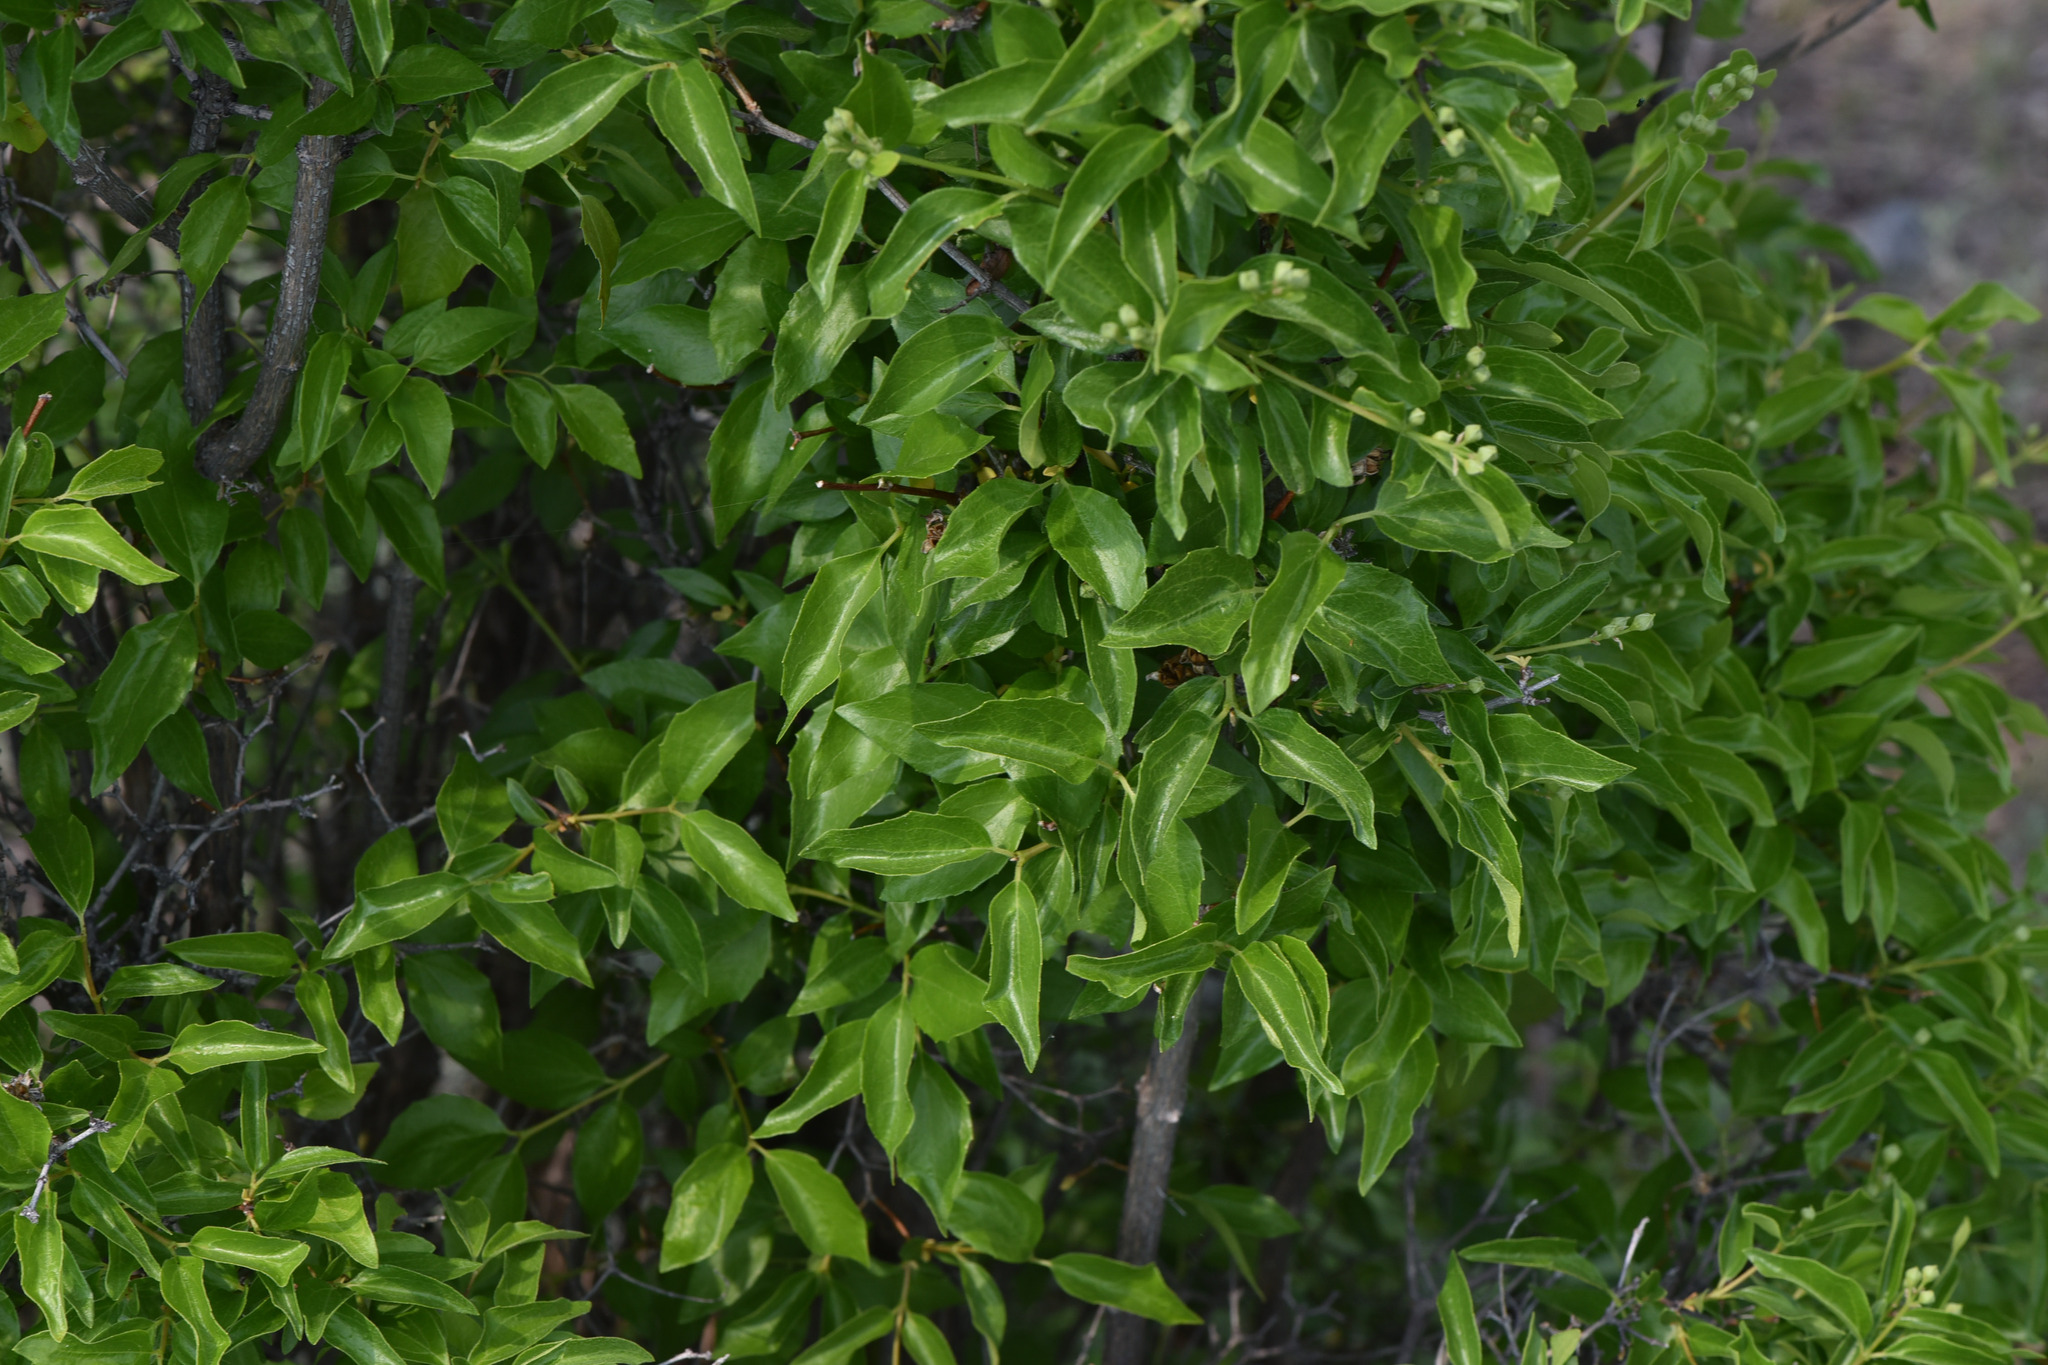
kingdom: Plantae
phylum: Tracheophyta
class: Magnoliopsida
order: Cornales
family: Hydrangeaceae
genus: Philadelphus
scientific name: Philadelphus lewisii
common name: Lewis's mock orange
